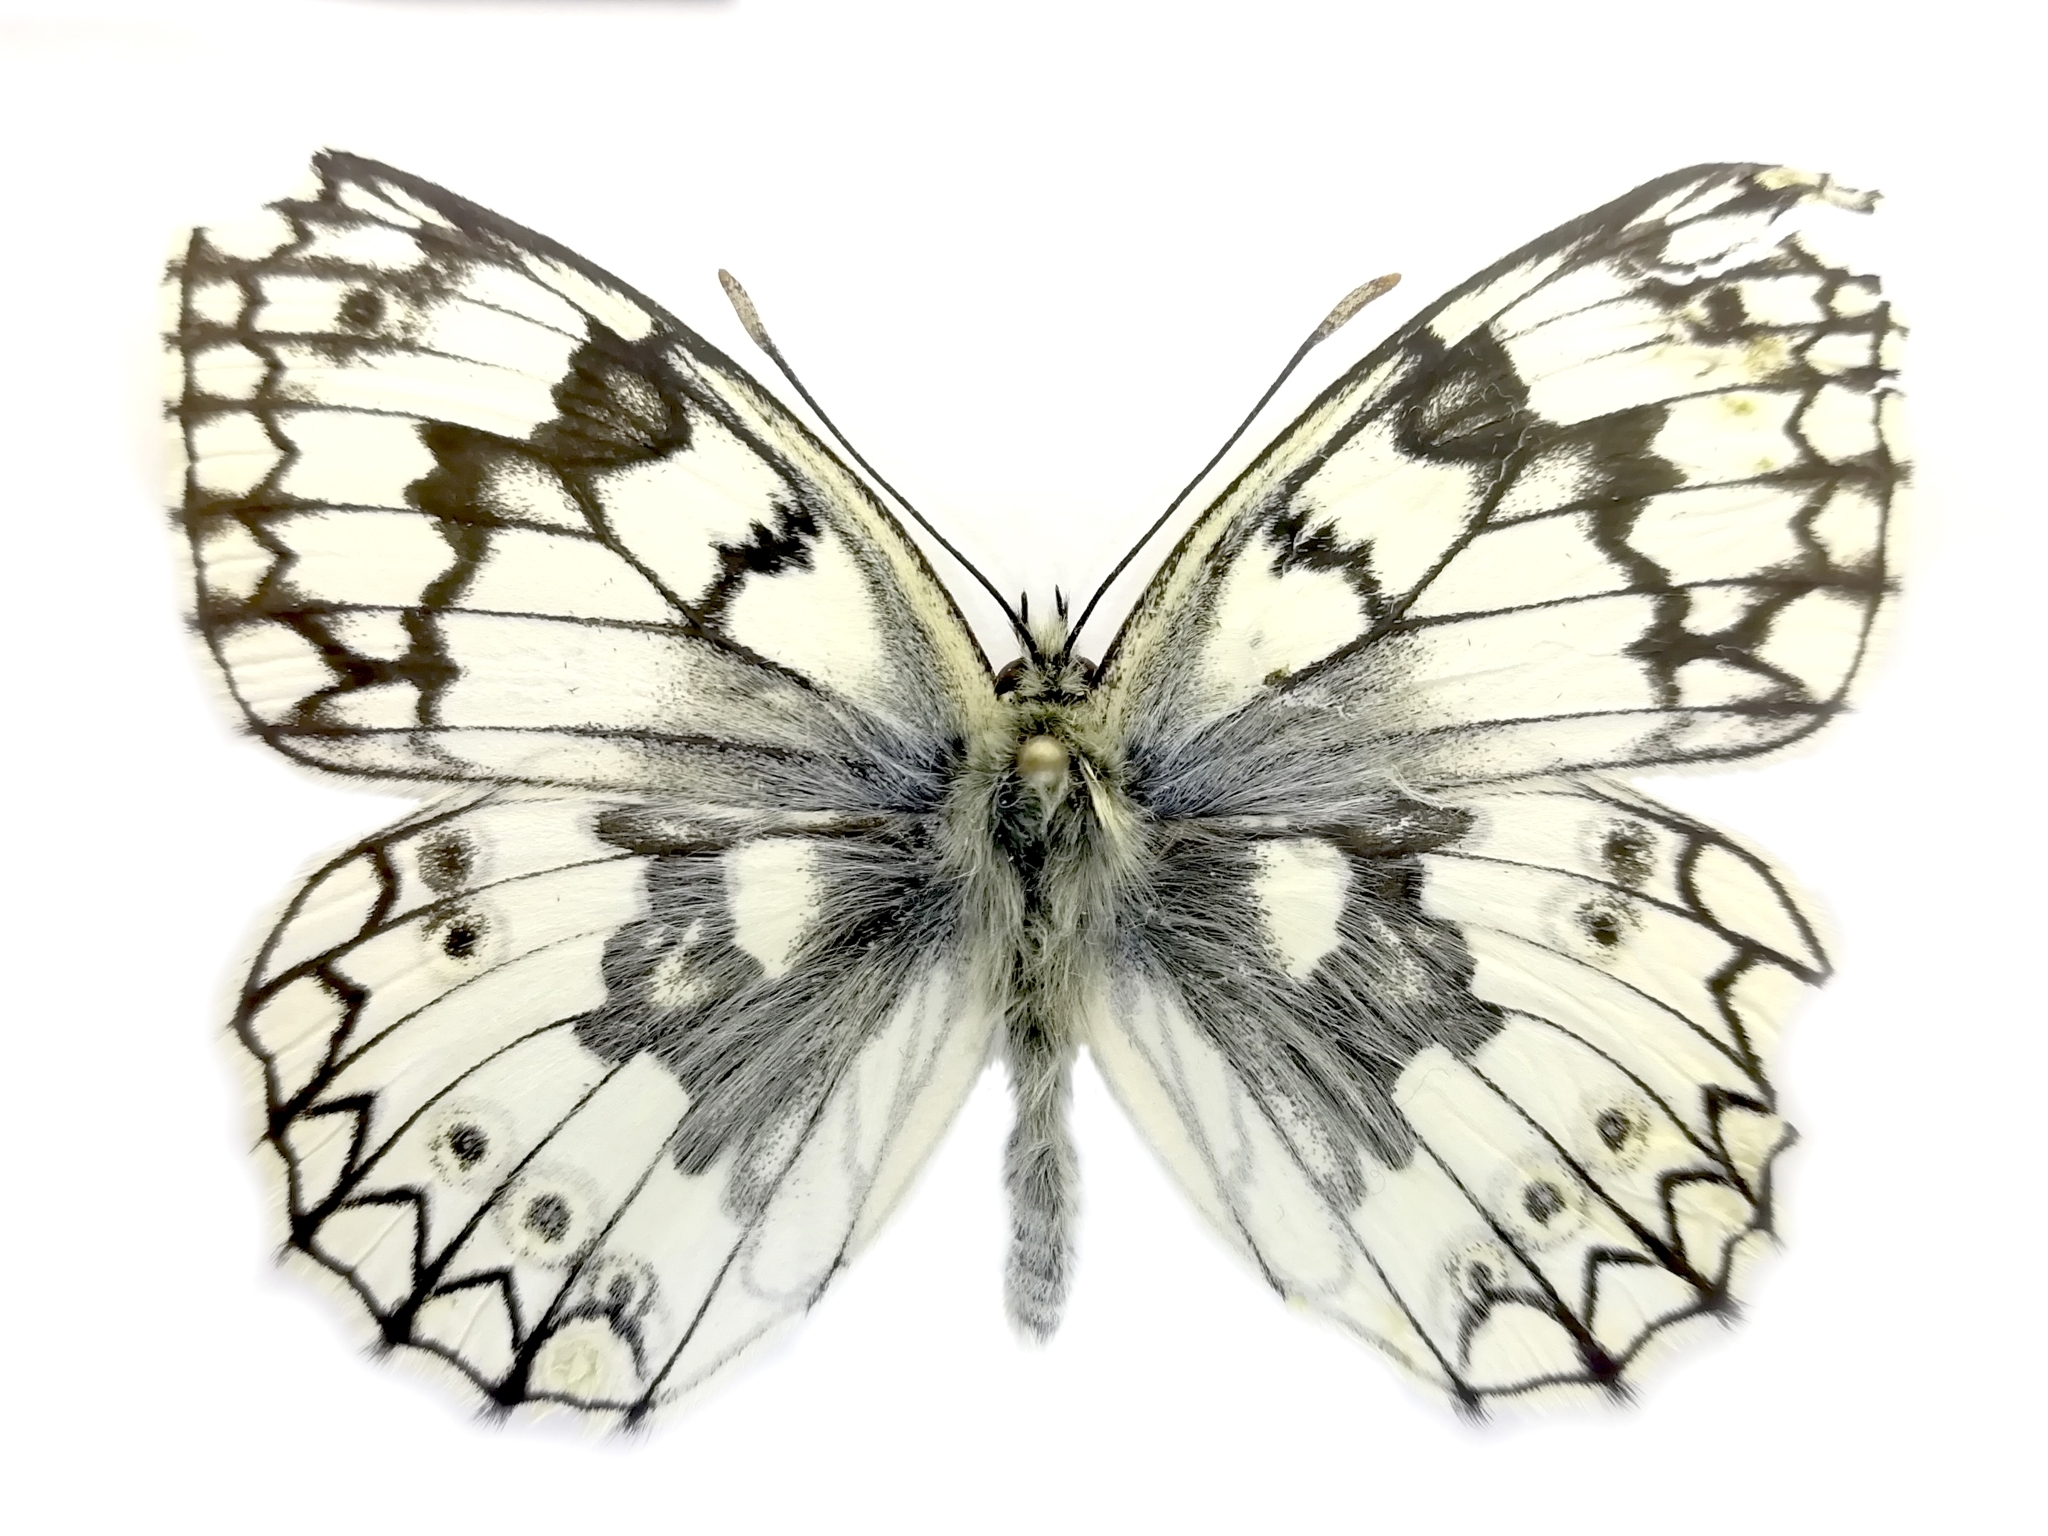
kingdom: Animalia
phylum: Arthropoda
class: Insecta
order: Lepidoptera
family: Nymphalidae
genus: Melanargia
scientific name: Melanargia japygia
